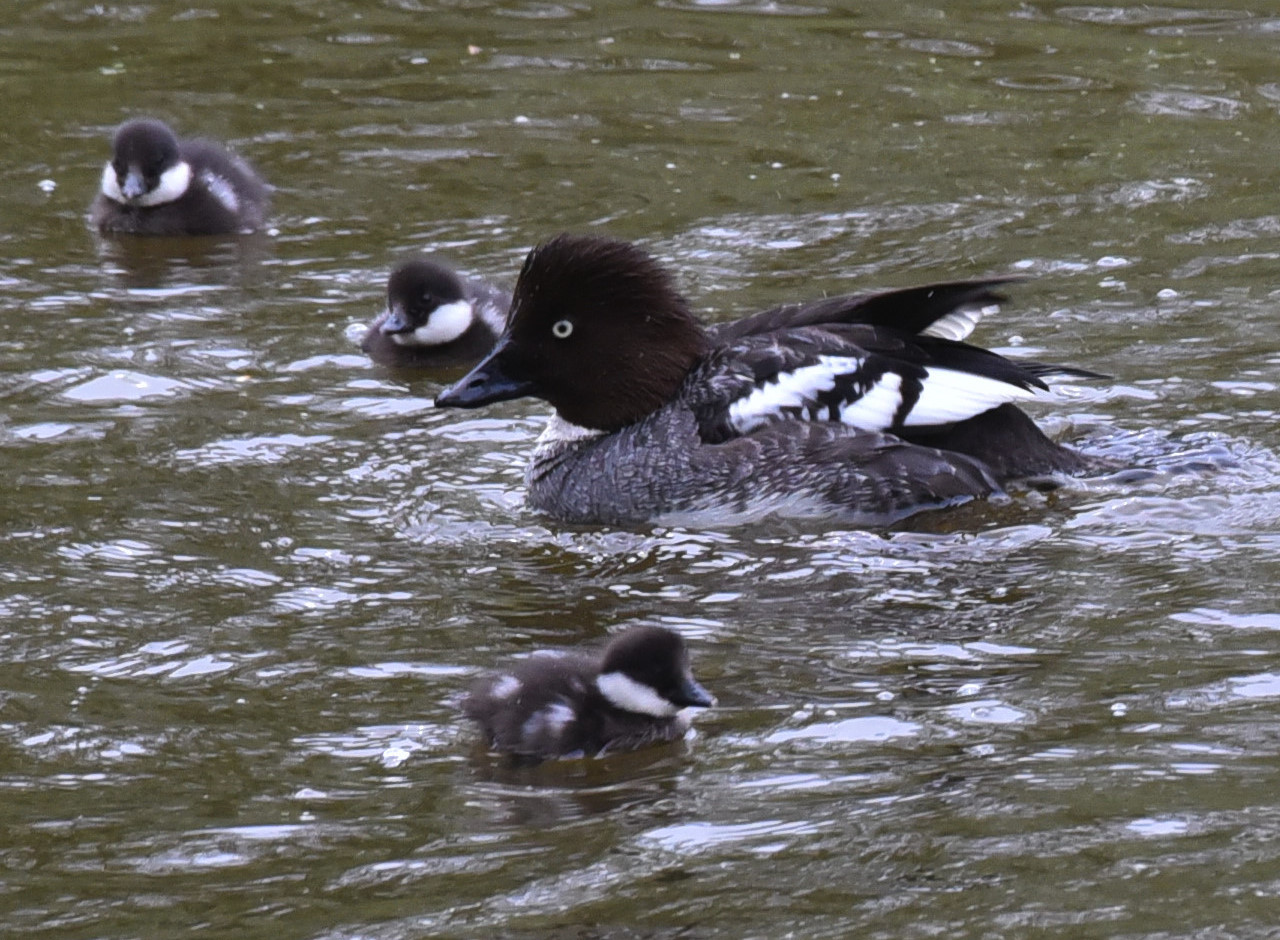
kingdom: Animalia
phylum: Chordata
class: Aves
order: Anseriformes
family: Anatidae
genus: Bucephala
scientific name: Bucephala clangula
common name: Common goldeneye
